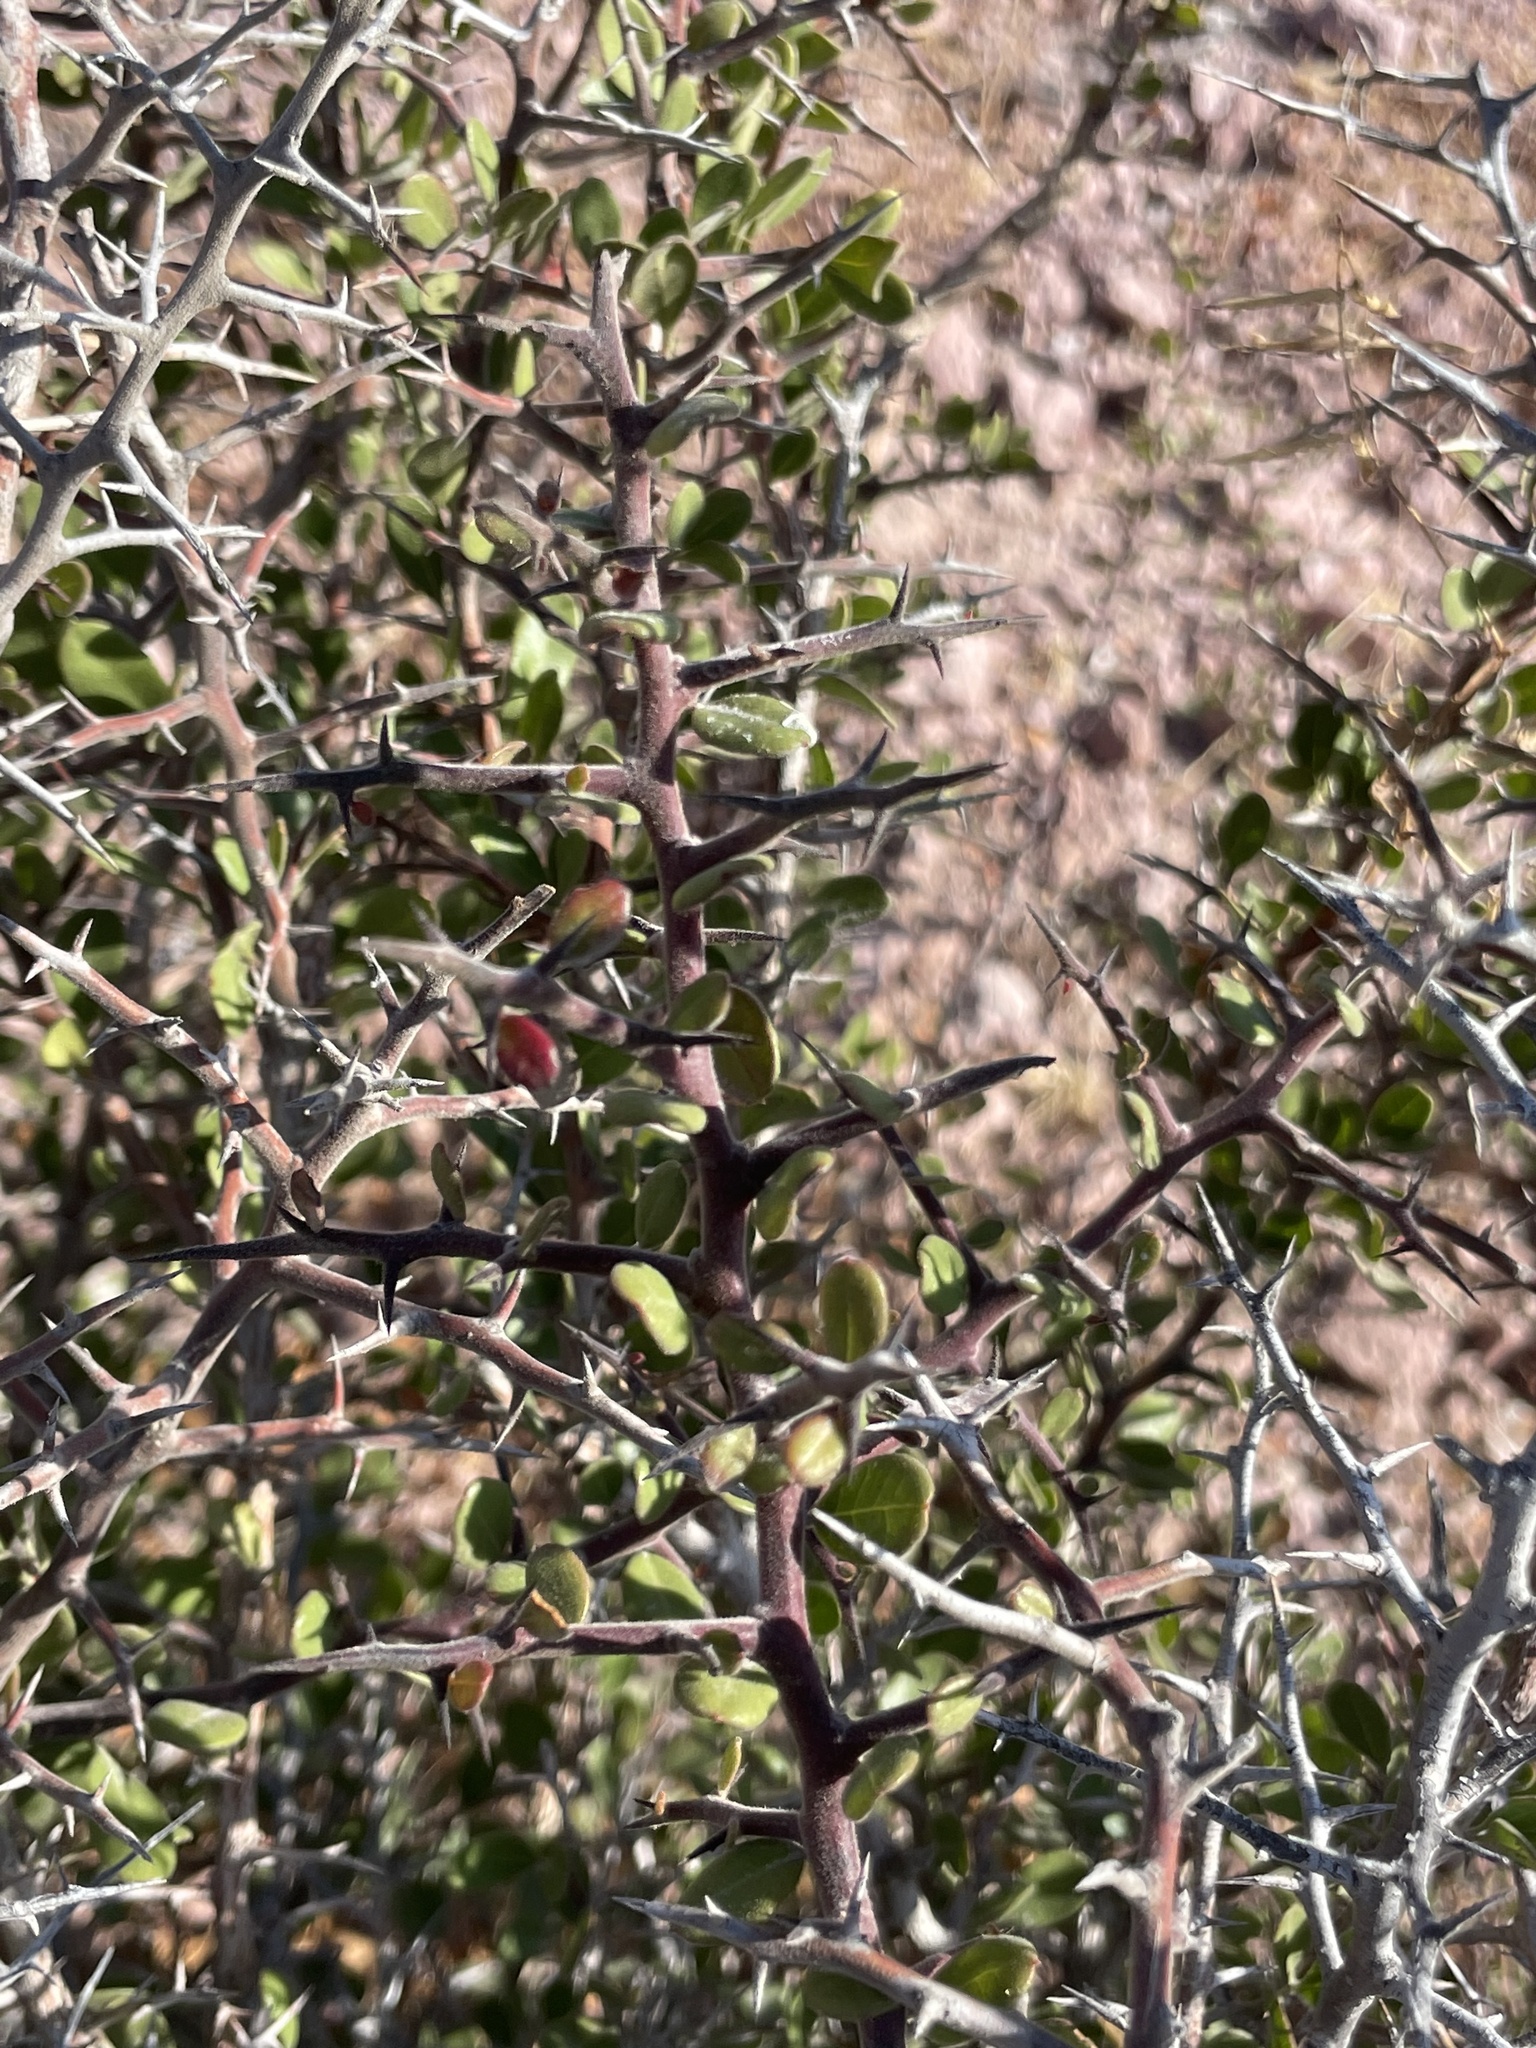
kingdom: Plantae
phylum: Tracheophyta
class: Magnoliopsida
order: Sapindales
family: Simaroubaceae
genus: Castela
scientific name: Castela peninsularis
